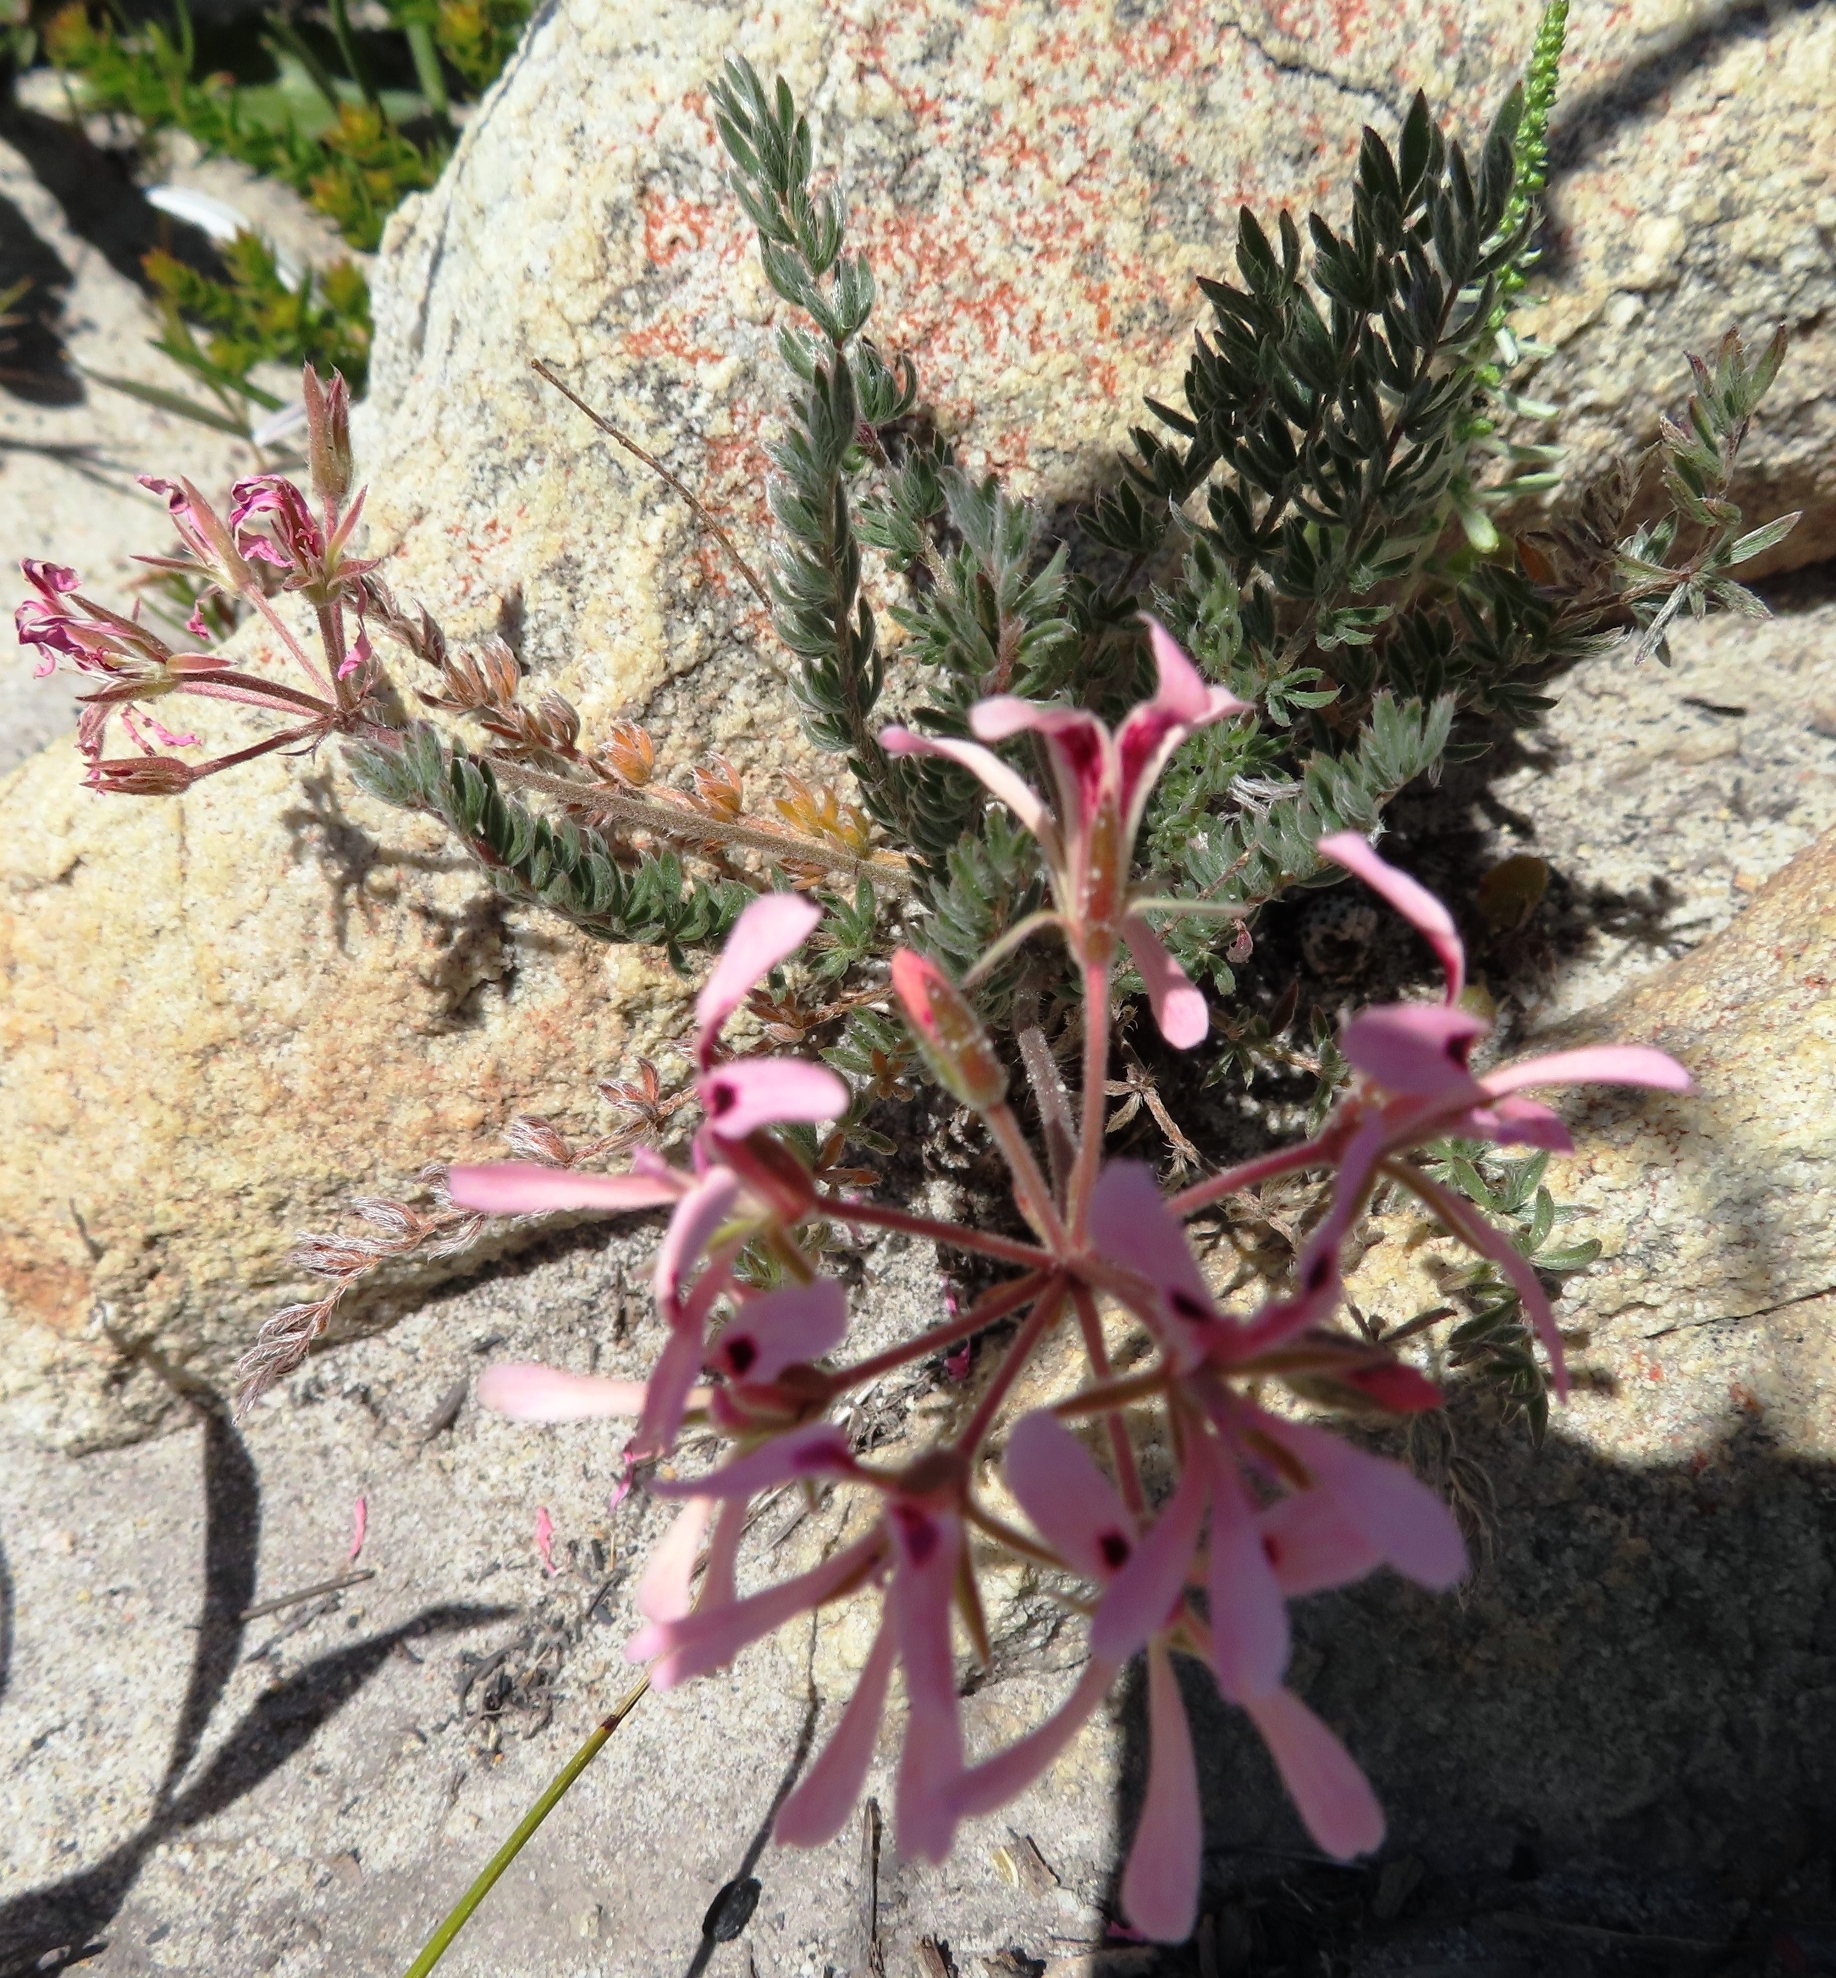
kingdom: Plantae
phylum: Tracheophyta
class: Magnoliopsida
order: Geraniales
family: Geraniaceae
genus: Pelargonium
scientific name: Pelargonium trifoliolatum
